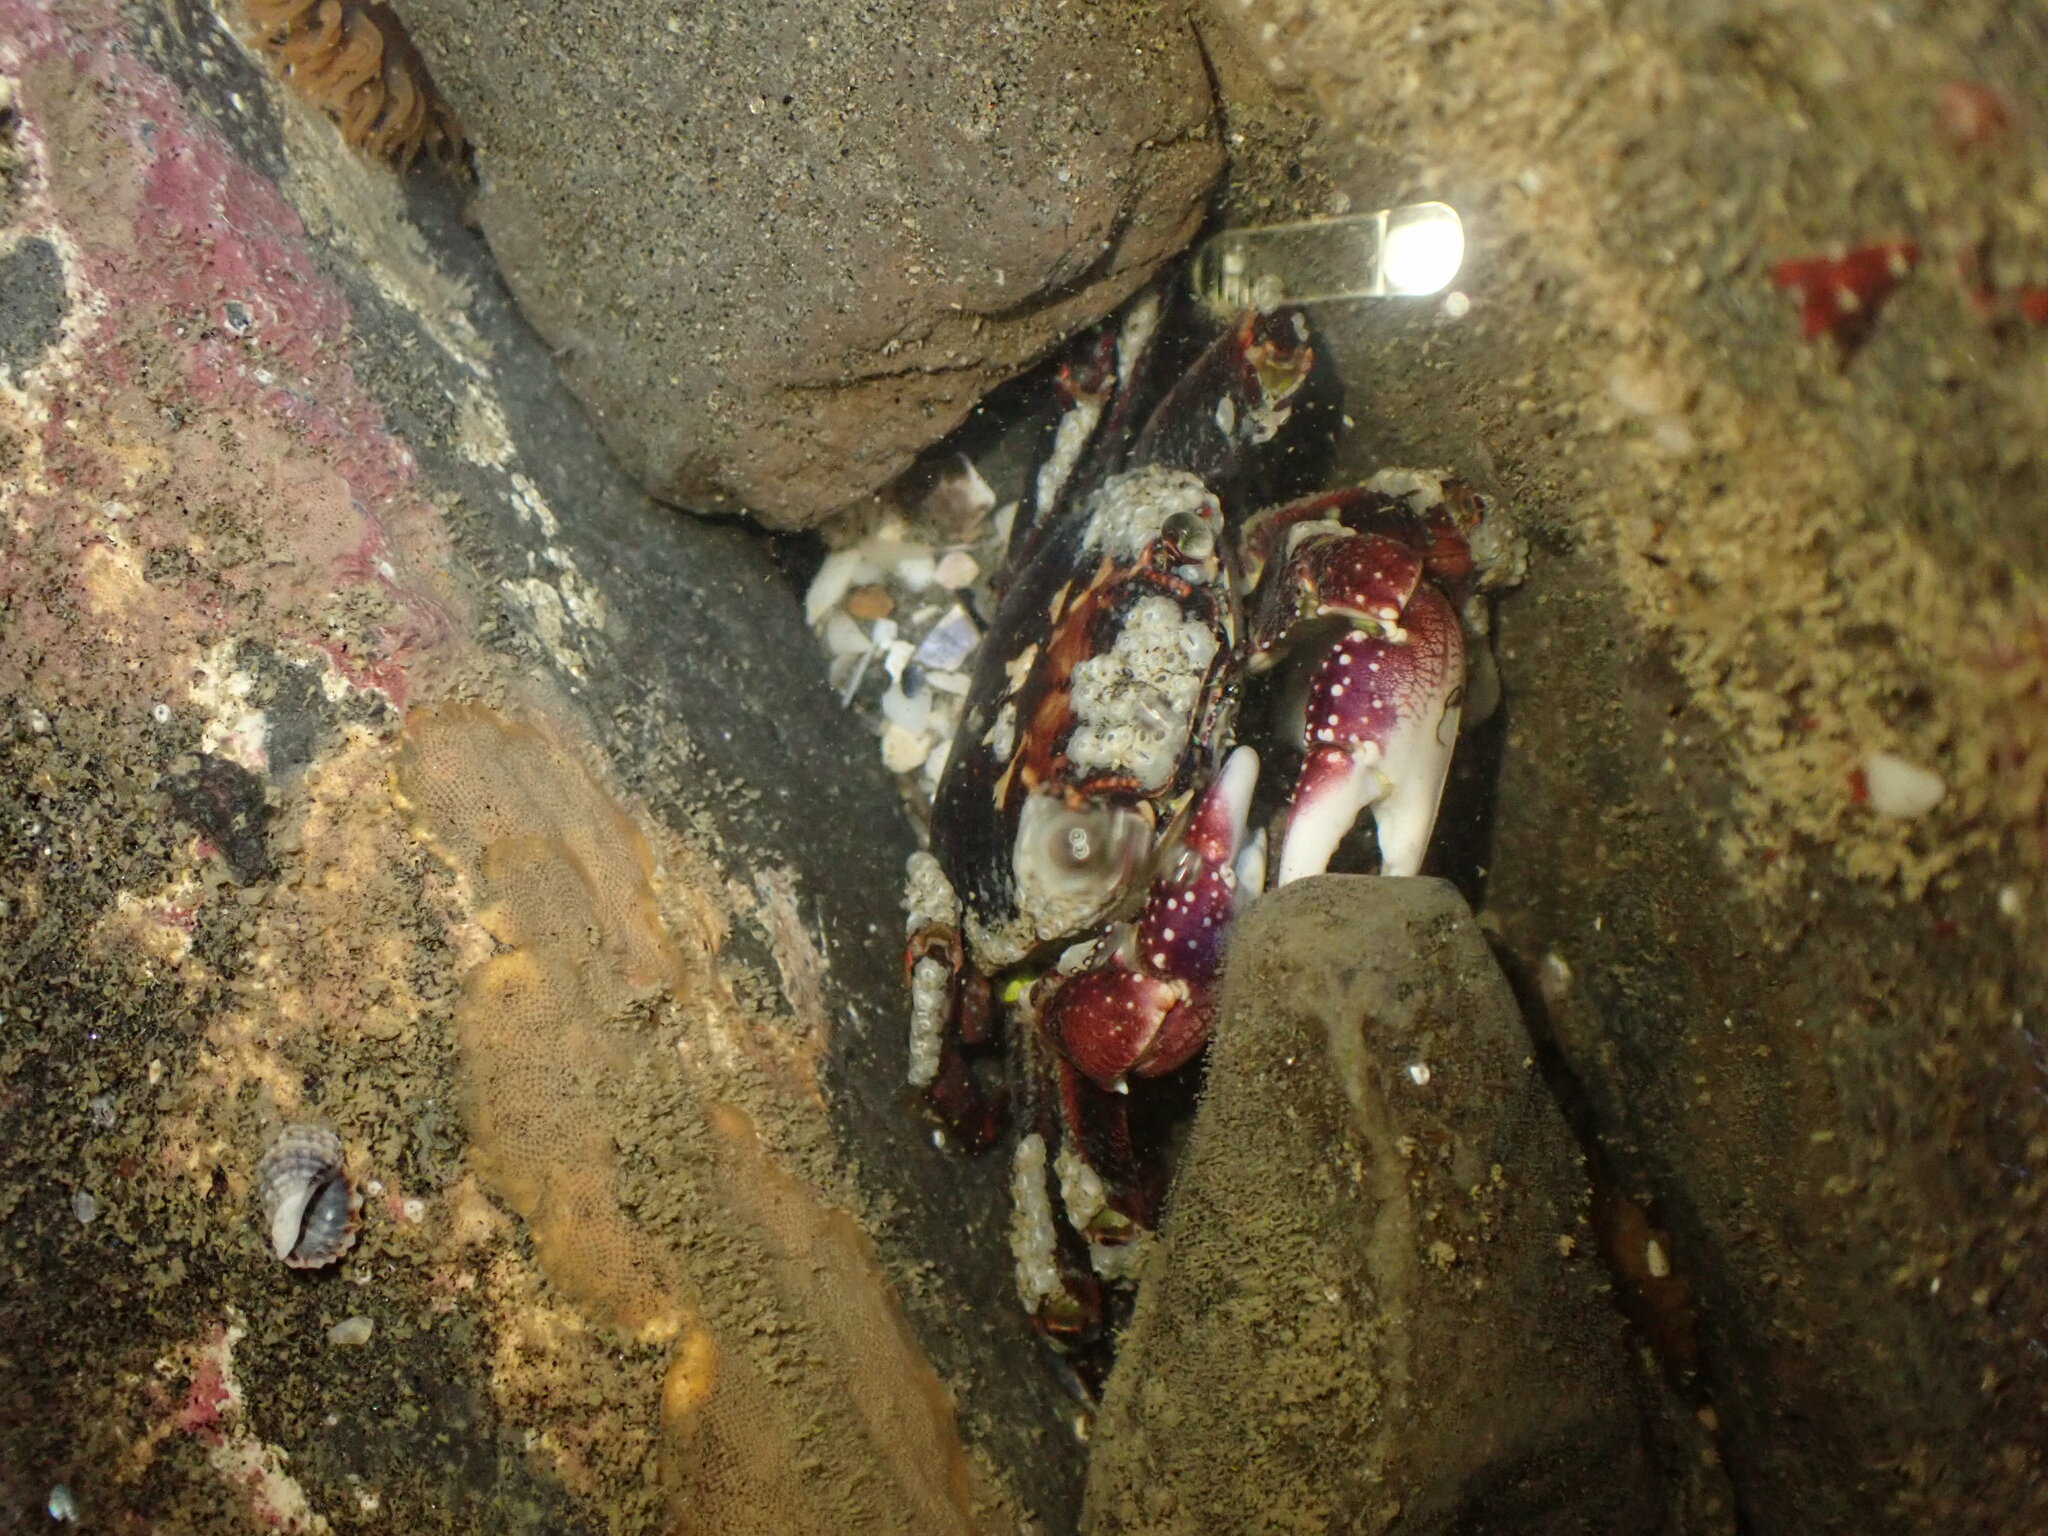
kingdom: Animalia
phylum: Arthropoda
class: Malacostraca
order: Decapoda
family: Grapsidae
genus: Leptograpsus
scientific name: Leptograpsus variegatus
